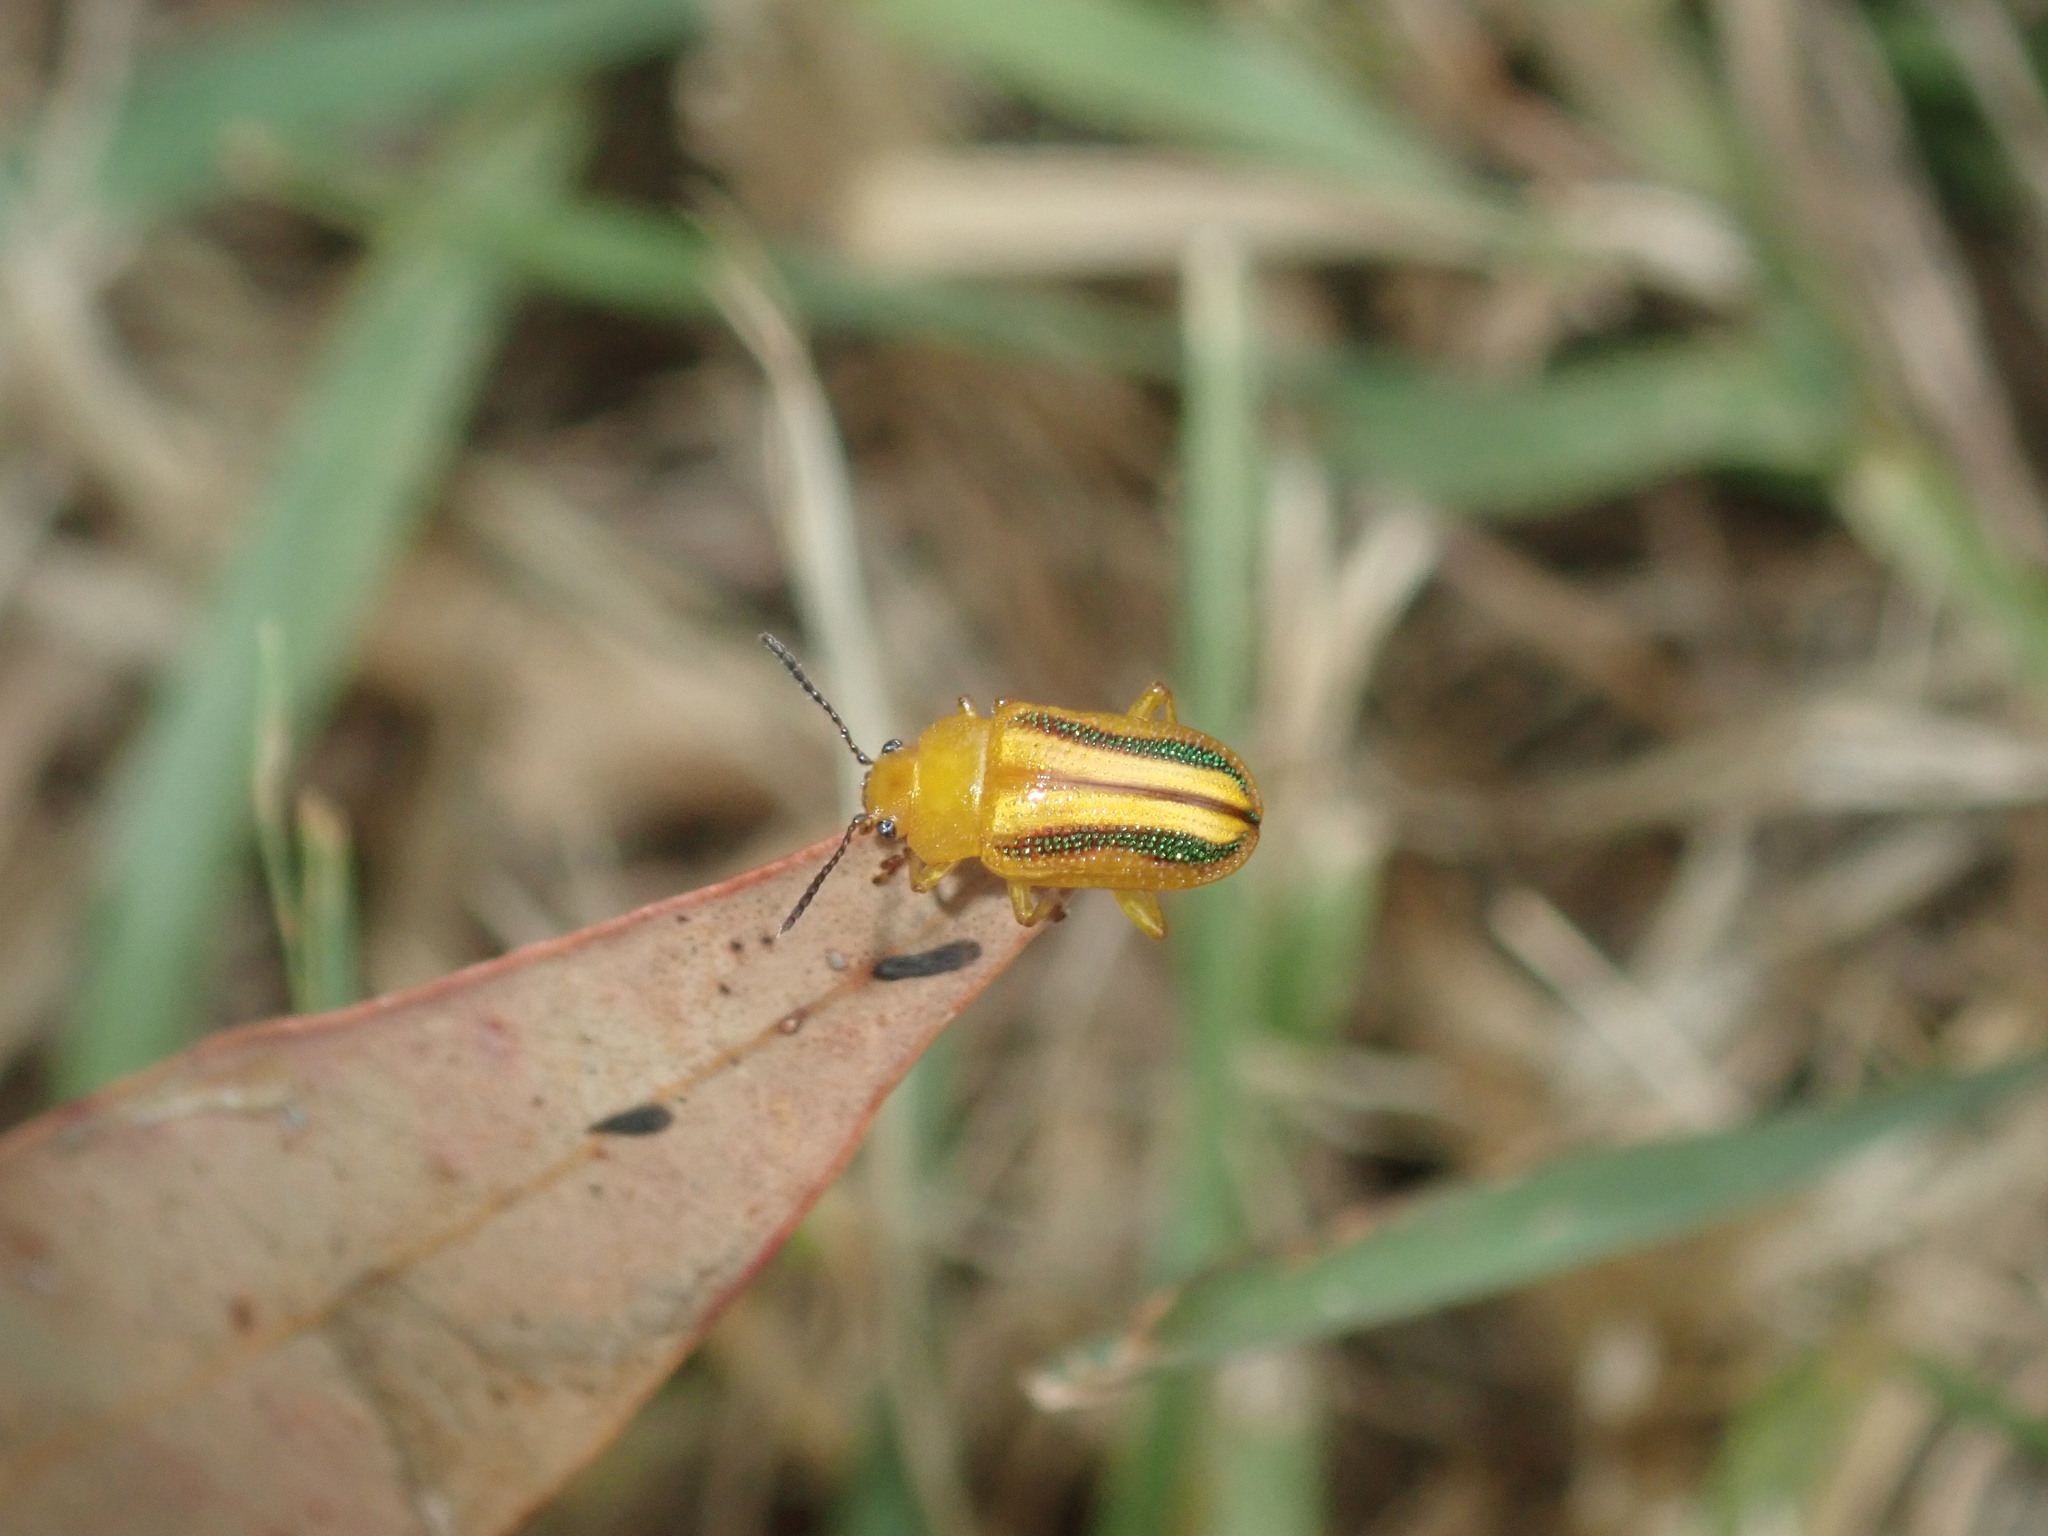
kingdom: Animalia
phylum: Arthropoda
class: Insecta
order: Coleoptera
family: Chrysomelidae
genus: Calomela
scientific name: Calomela
